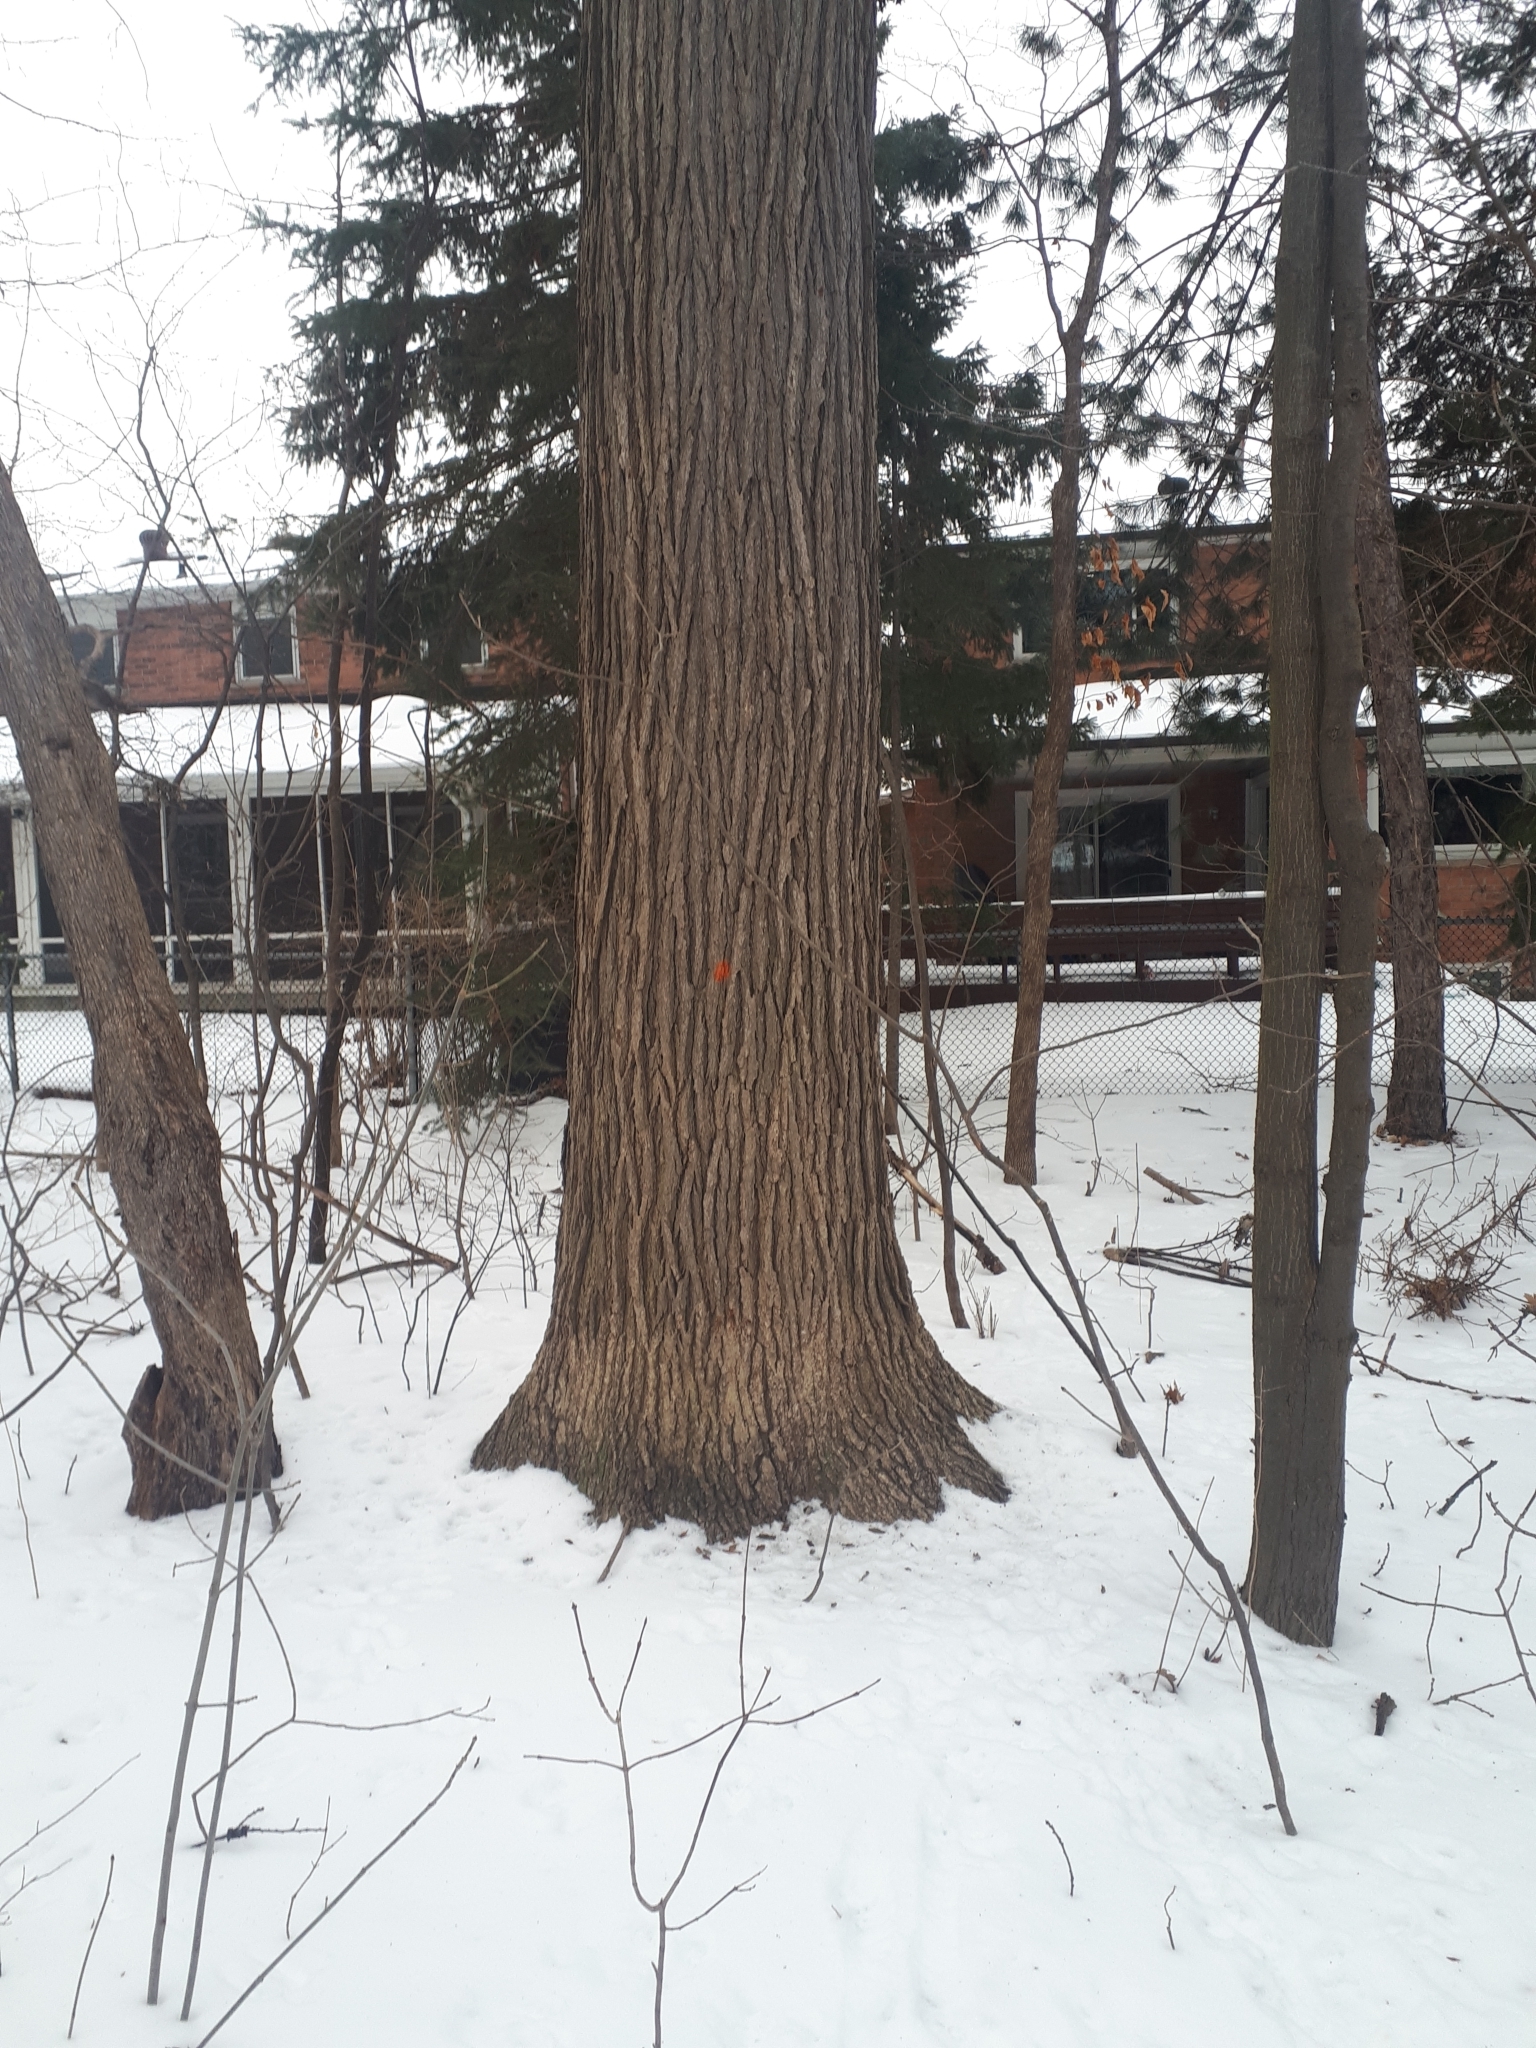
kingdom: Plantae
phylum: Tracheophyta
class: Magnoliopsida
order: Fagales
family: Fagaceae
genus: Quercus
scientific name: Quercus macrocarpa
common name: Bur oak
